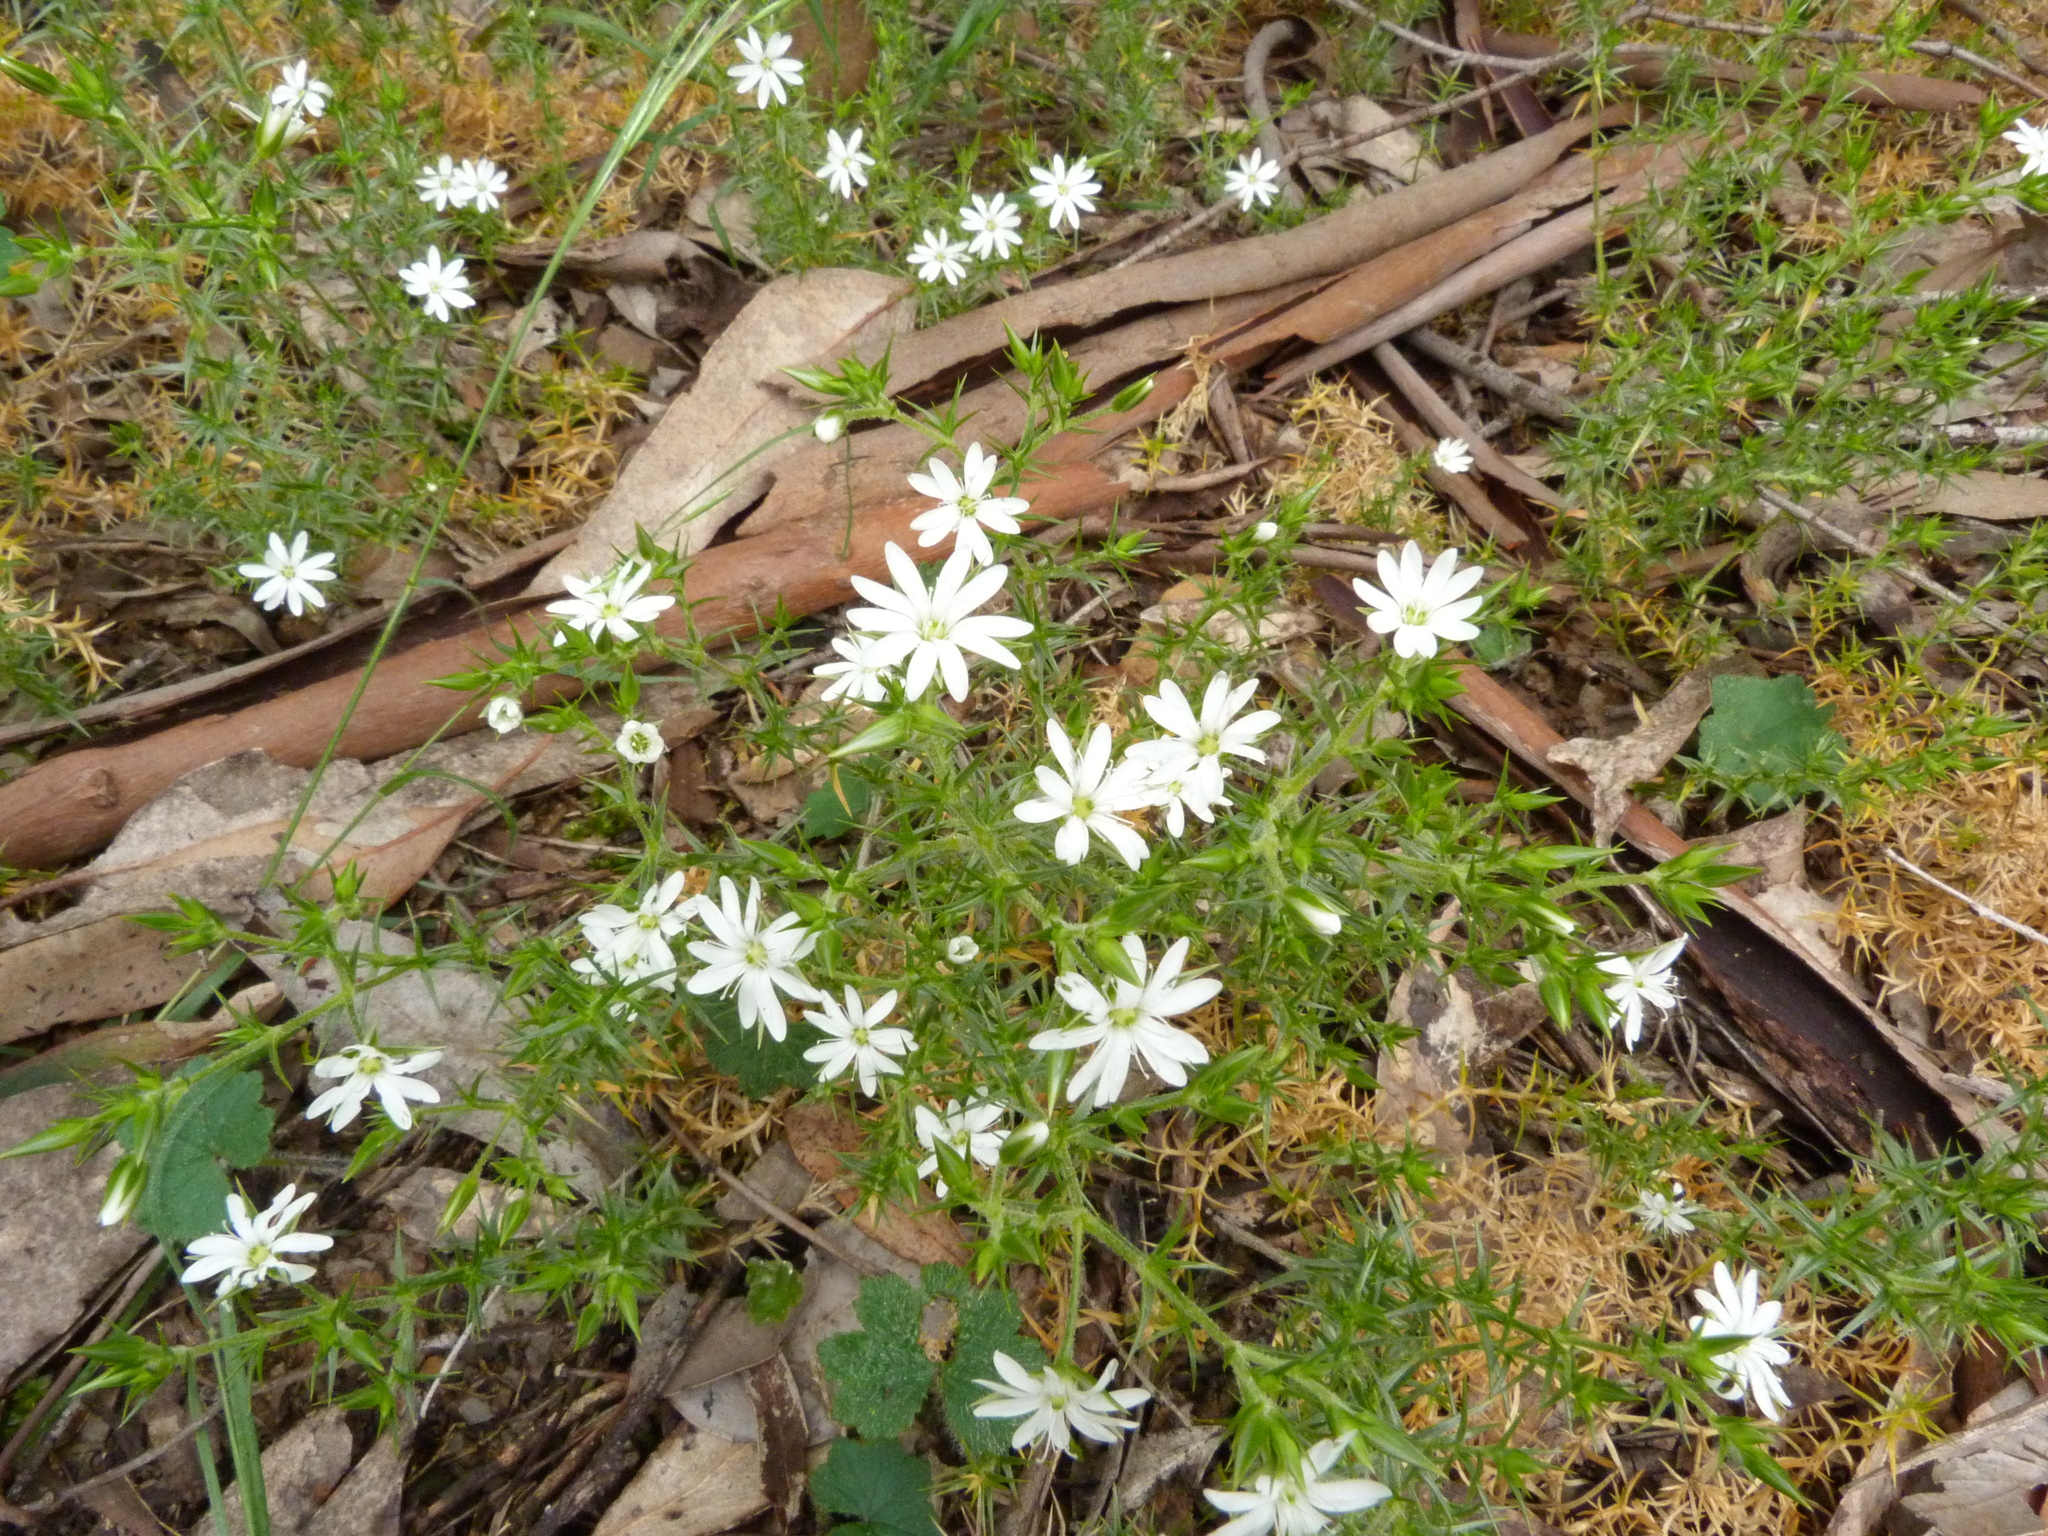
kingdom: Plantae
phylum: Tracheophyta
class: Magnoliopsida
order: Caryophyllales
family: Caryophyllaceae
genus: Stellaria
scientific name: Stellaria pungens
